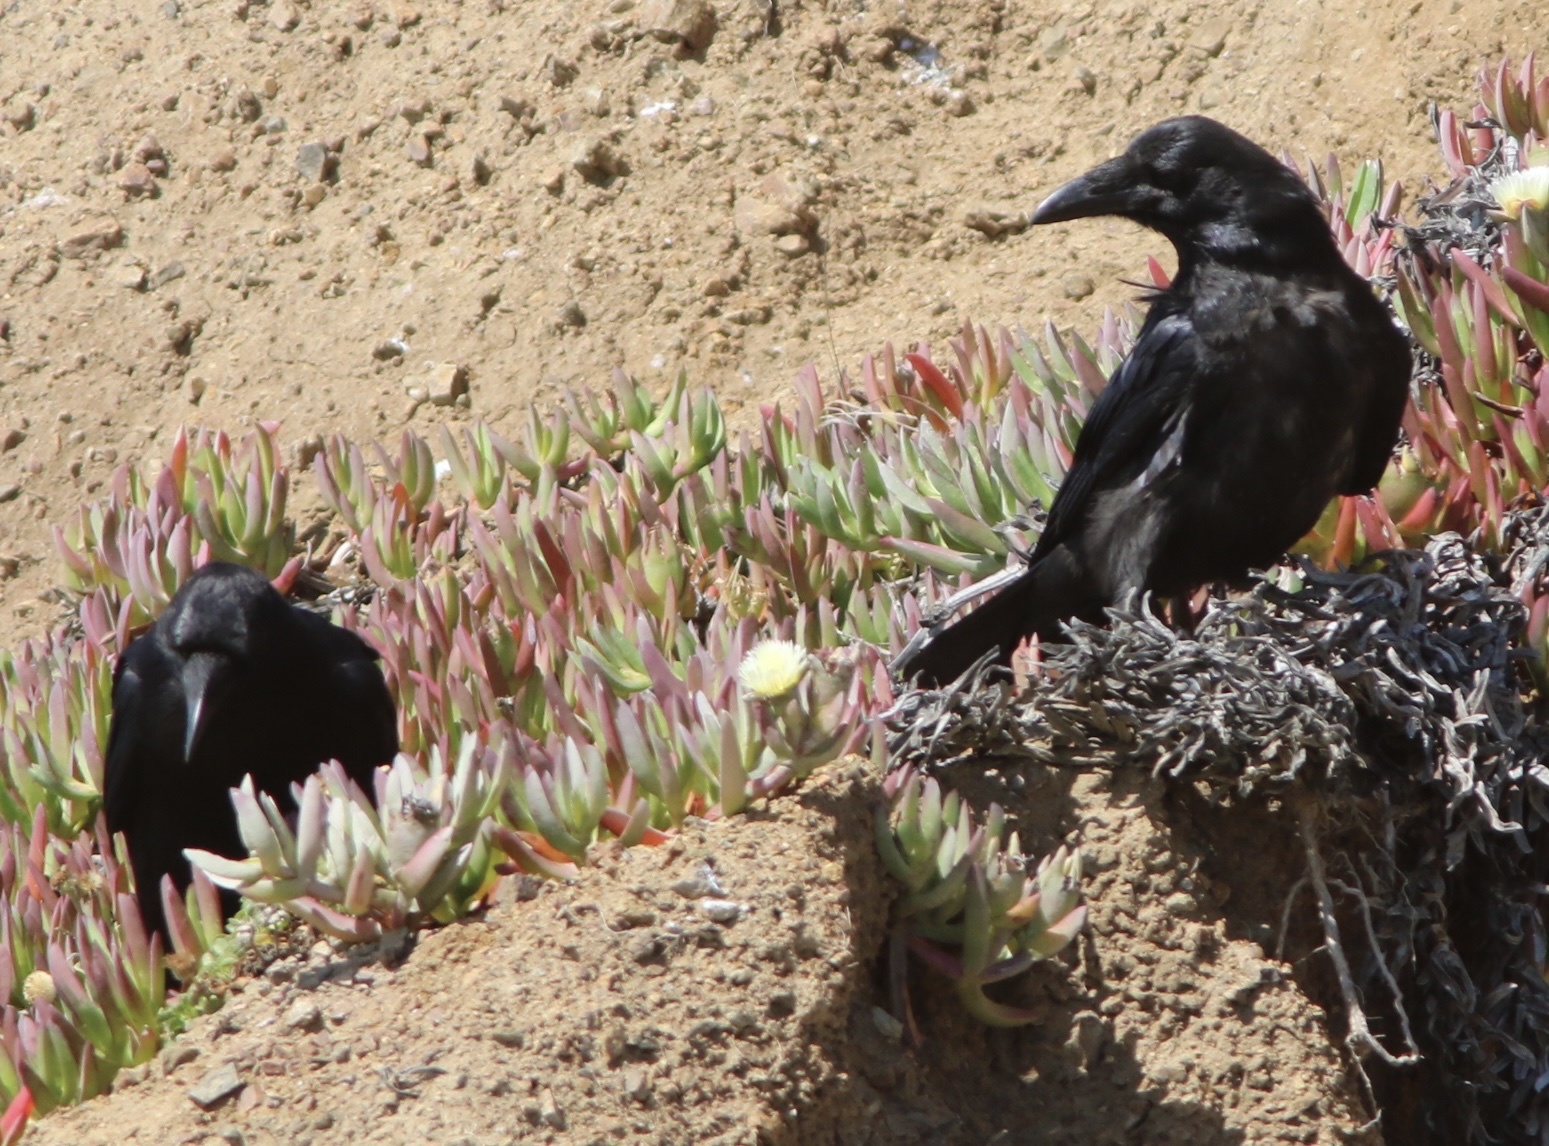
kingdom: Animalia
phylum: Chordata
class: Aves
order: Passeriformes
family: Corvidae
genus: Corvus
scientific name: Corvus corax
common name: Common raven
